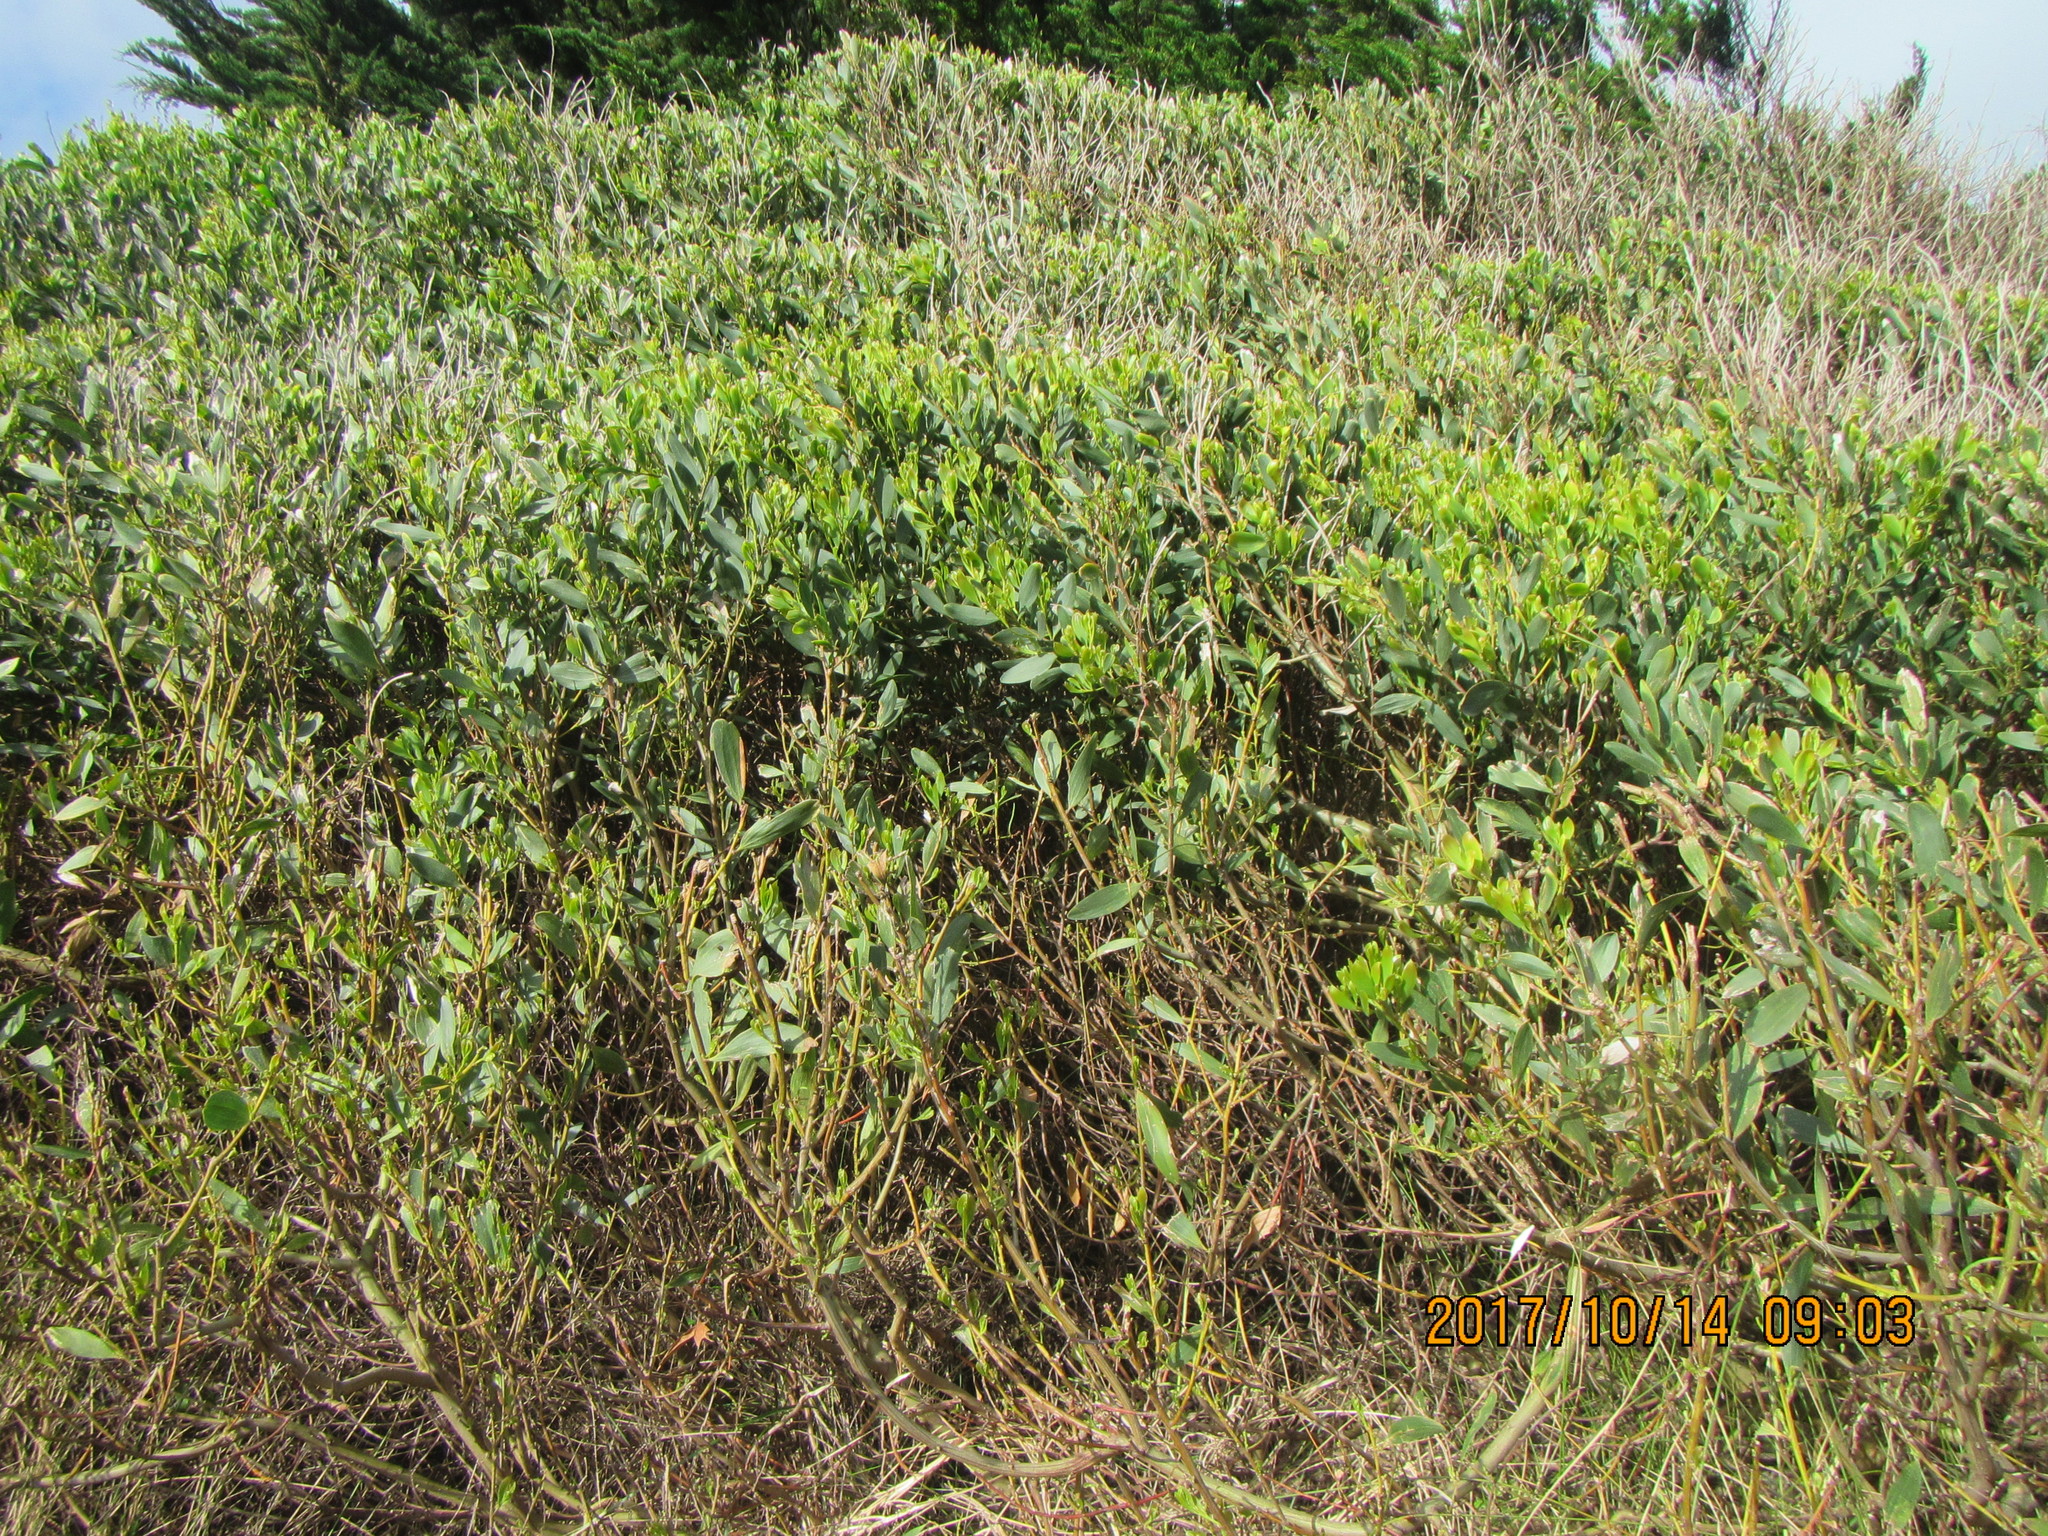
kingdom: Plantae
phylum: Tracheophyta
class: Magnoliopsida
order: Fabales
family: Fabaceae
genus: Acacia
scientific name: Acacia longifolia
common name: Sydney golden wattle
